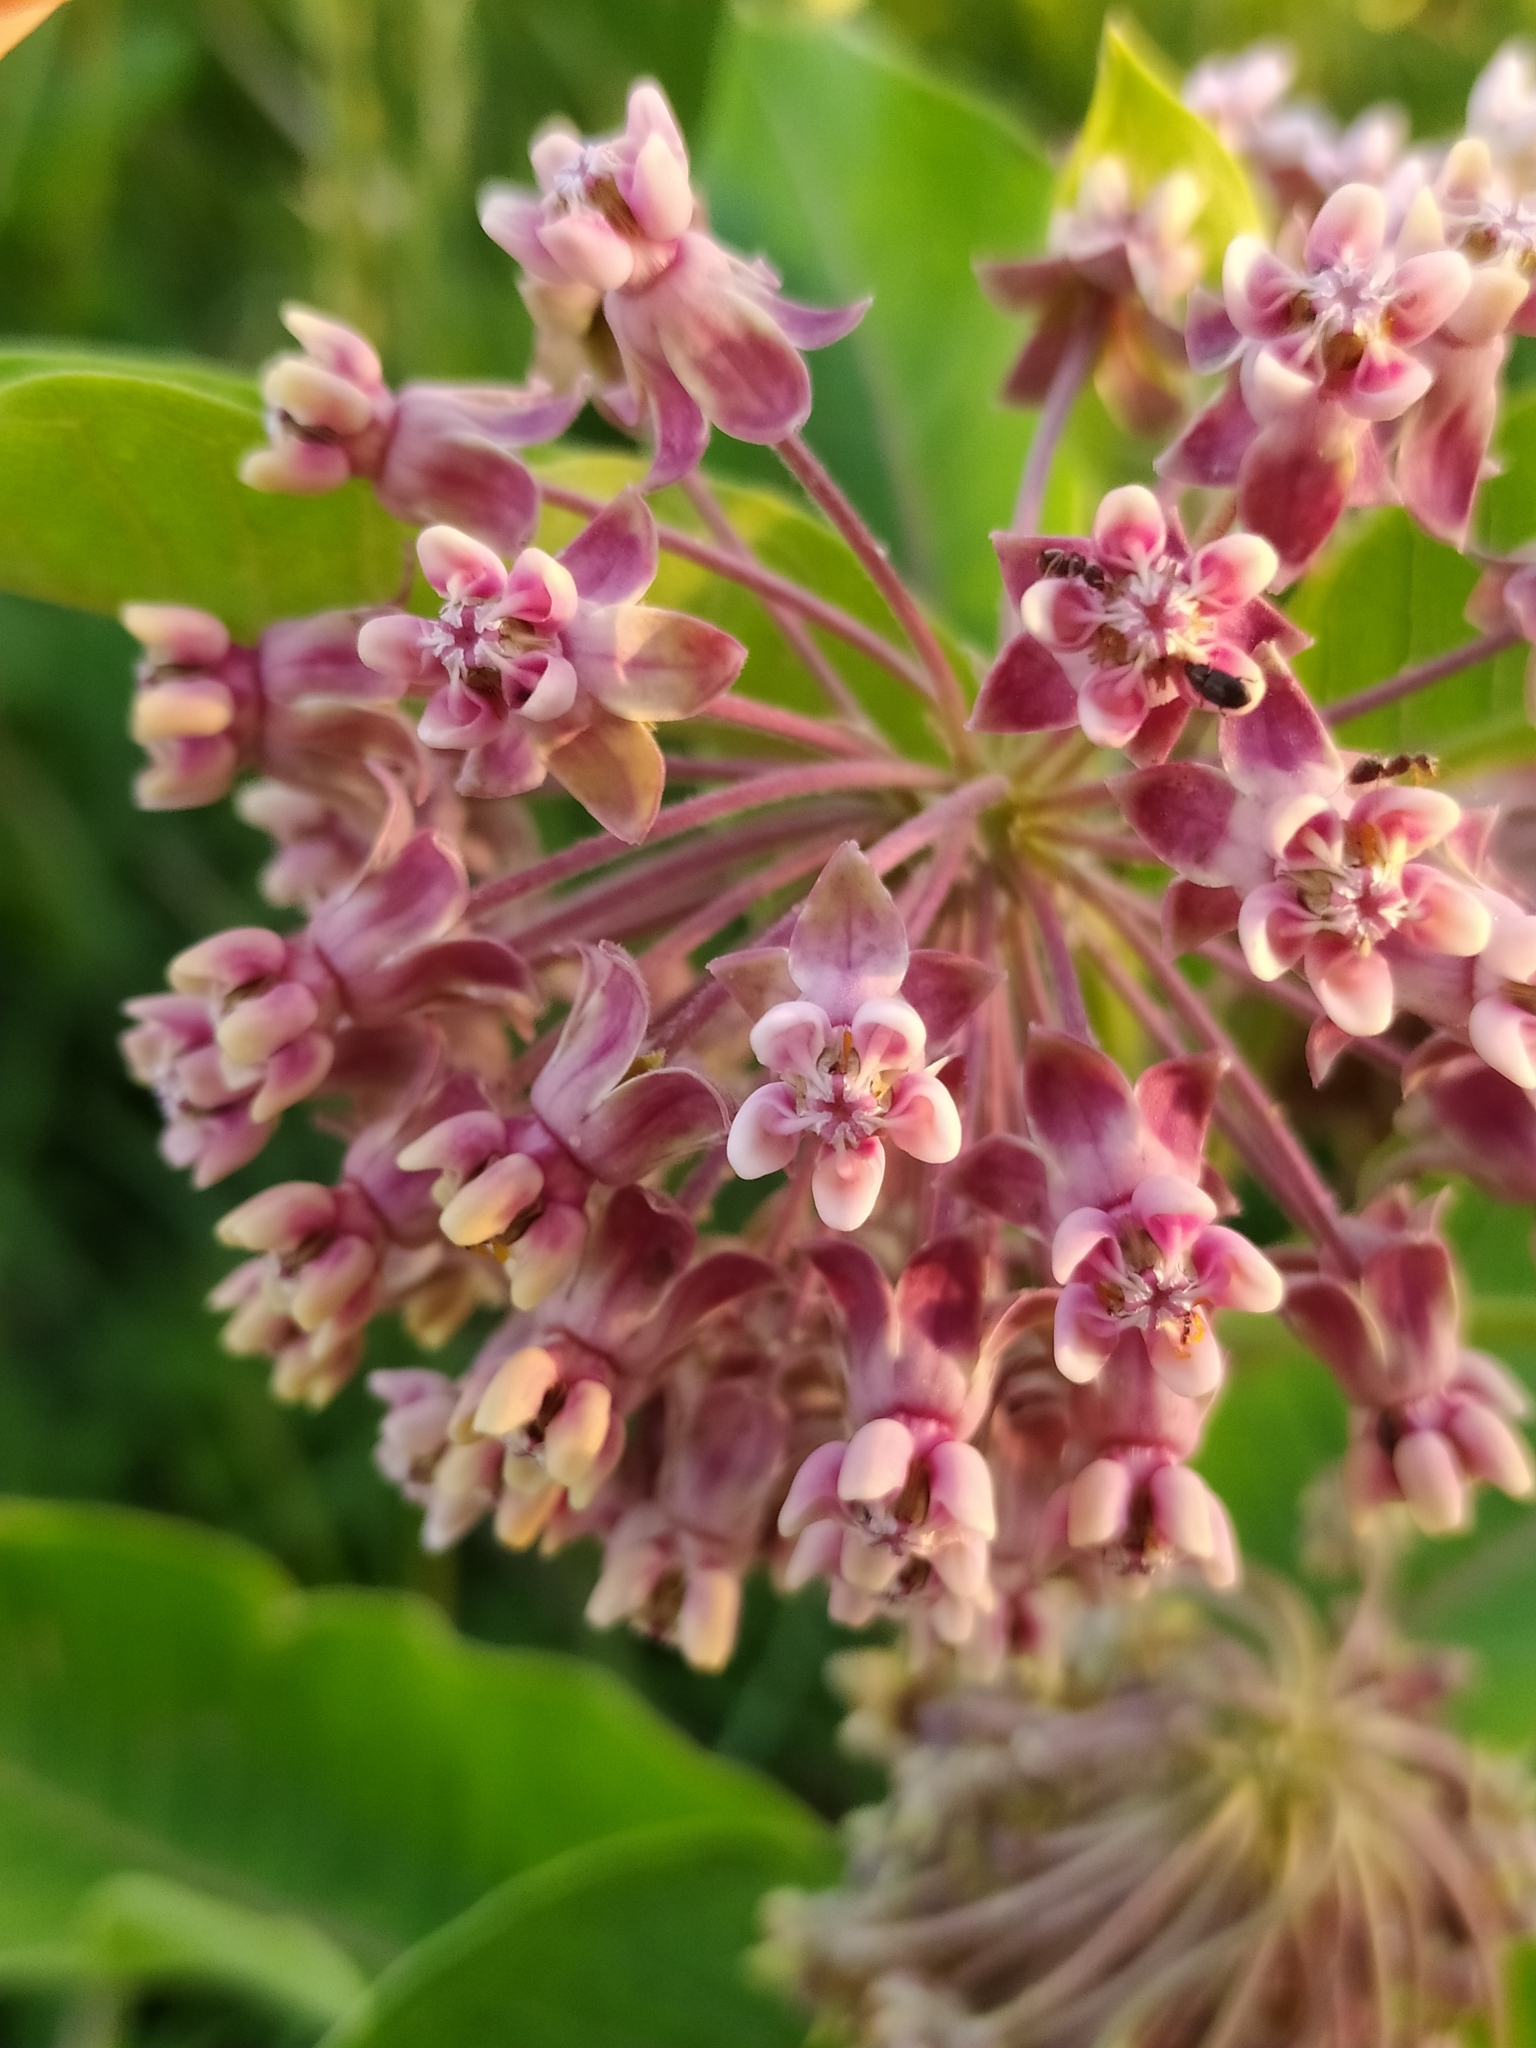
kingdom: Plantae
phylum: Tracheophyta
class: Magnoliopsida
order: Gentianales
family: Apocynaceae
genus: Asclepias
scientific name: Asclepias syriaca
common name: Common milkweed
